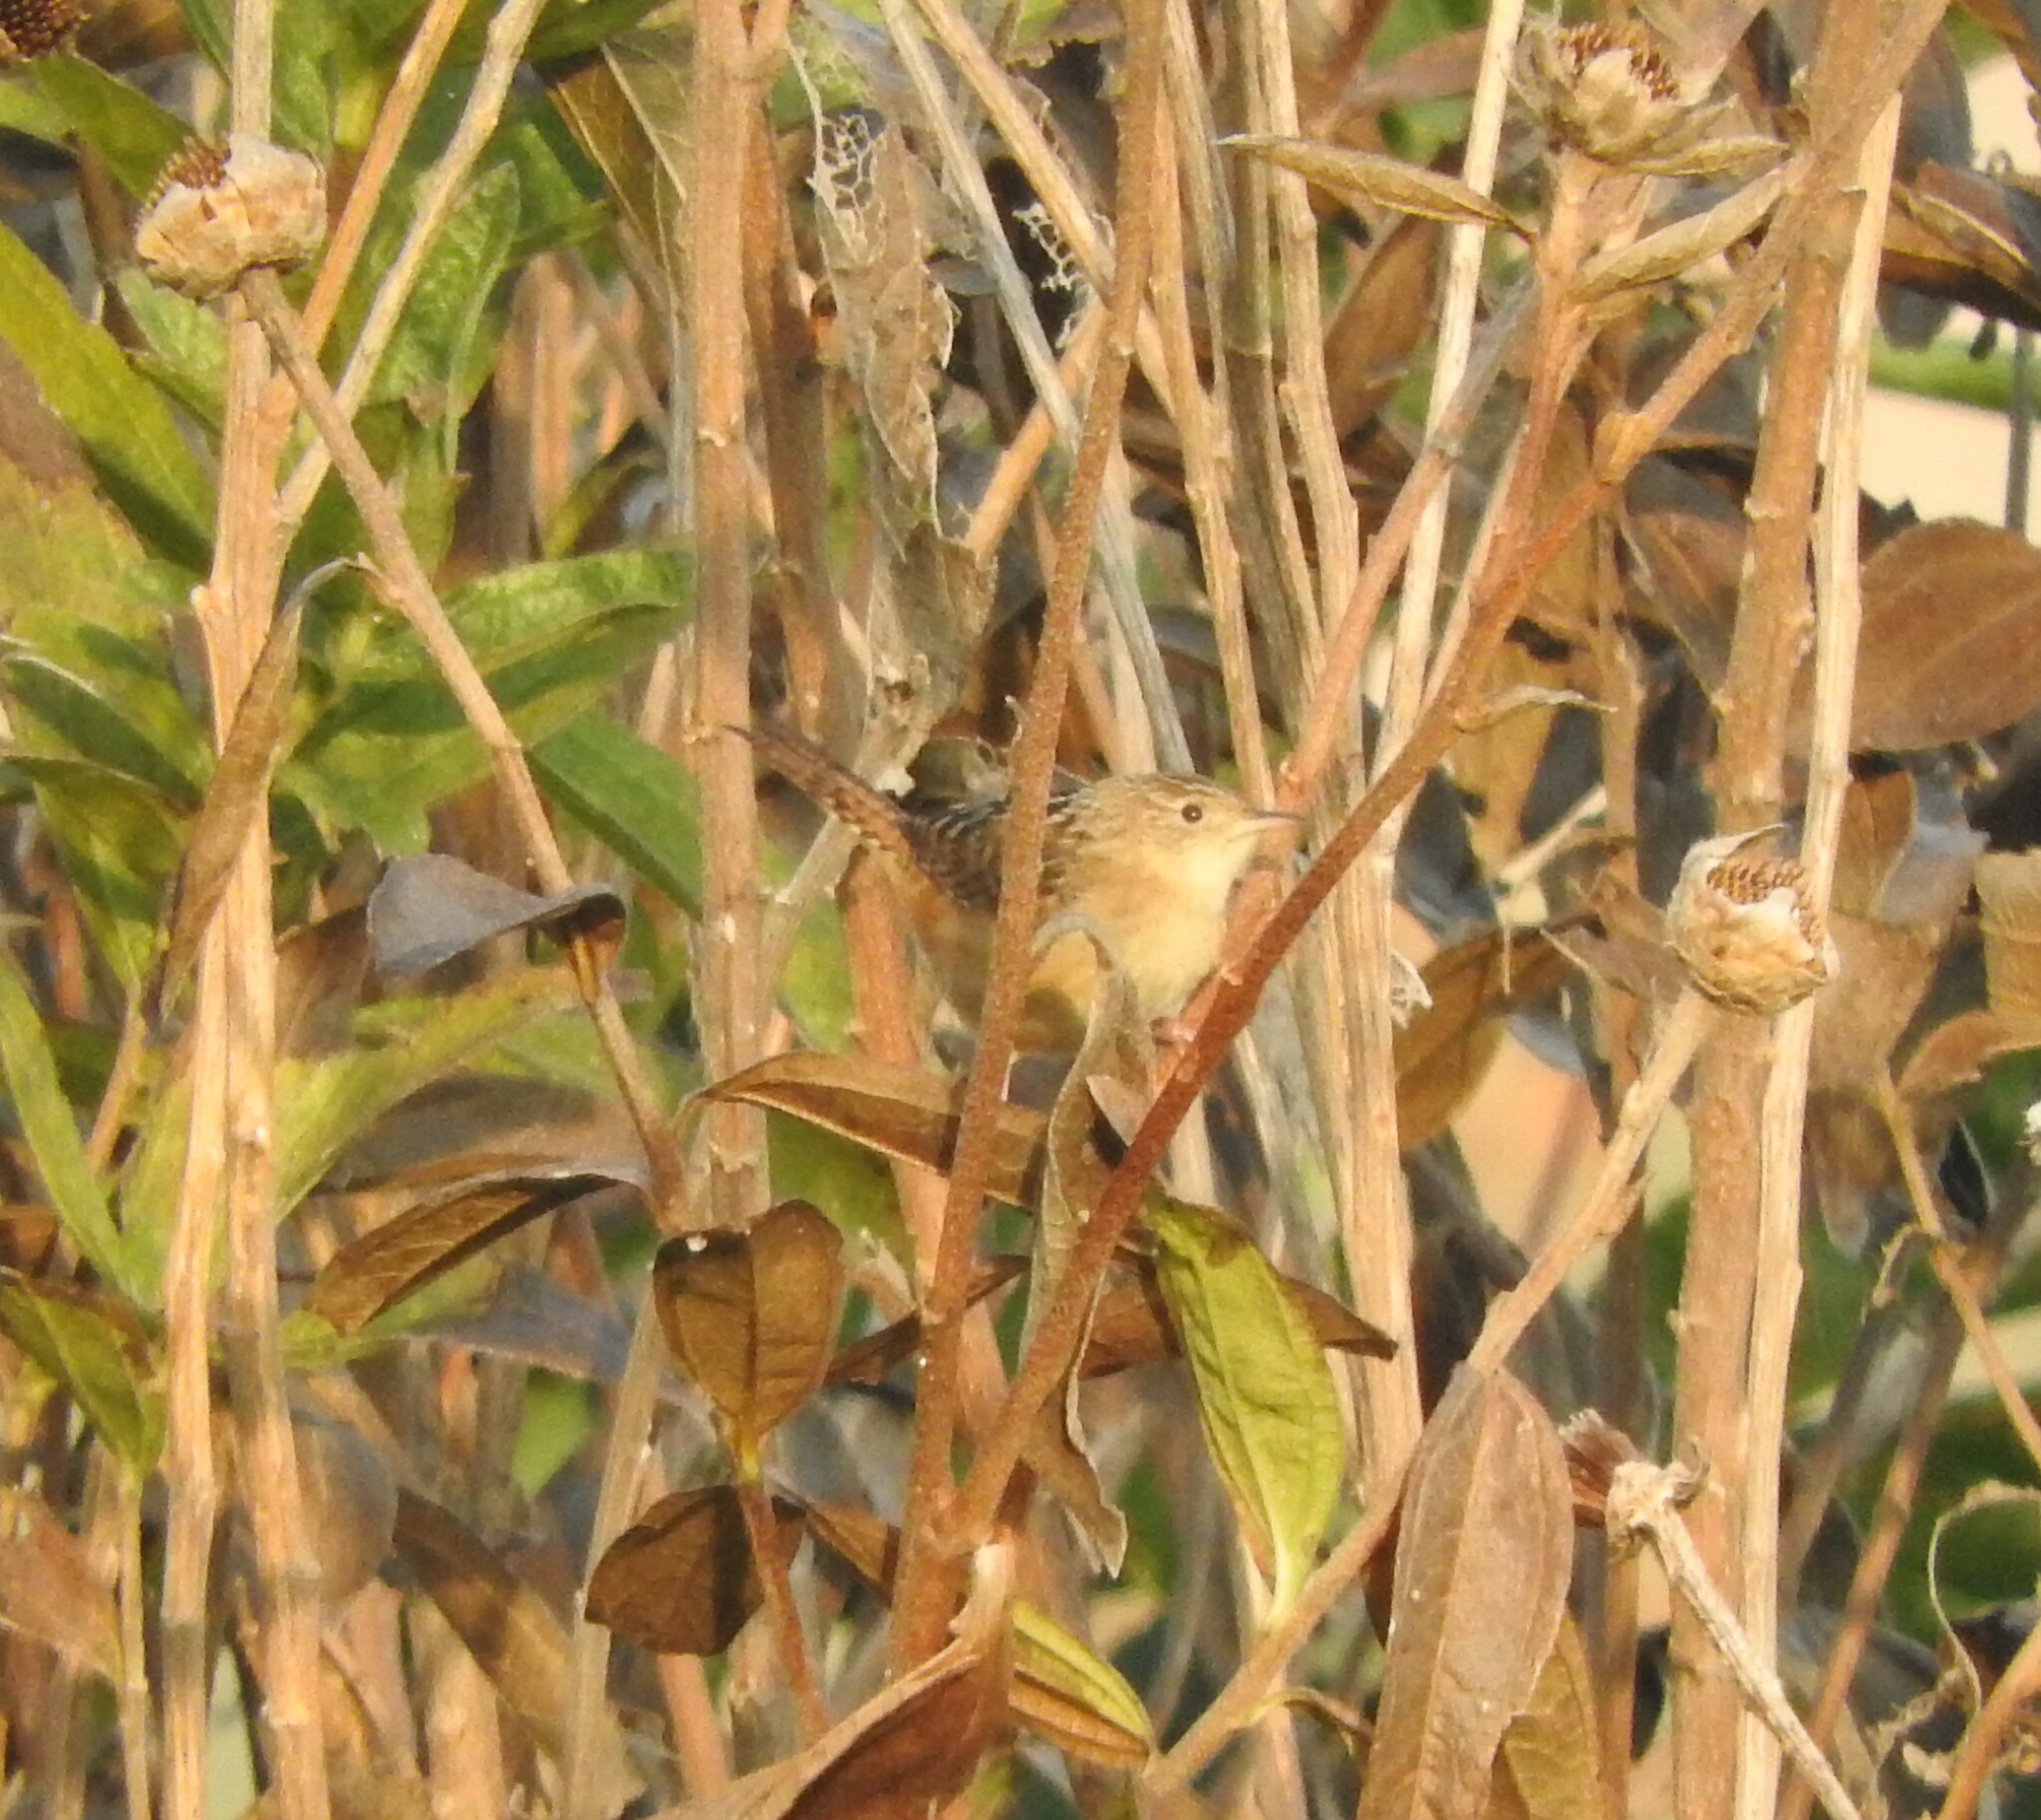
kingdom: Animalia
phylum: Chordata
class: Aves
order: Passeriformes
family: Troglodytidae
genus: Cistothorus
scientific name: Cistothorus platensis
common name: Sedge wren
